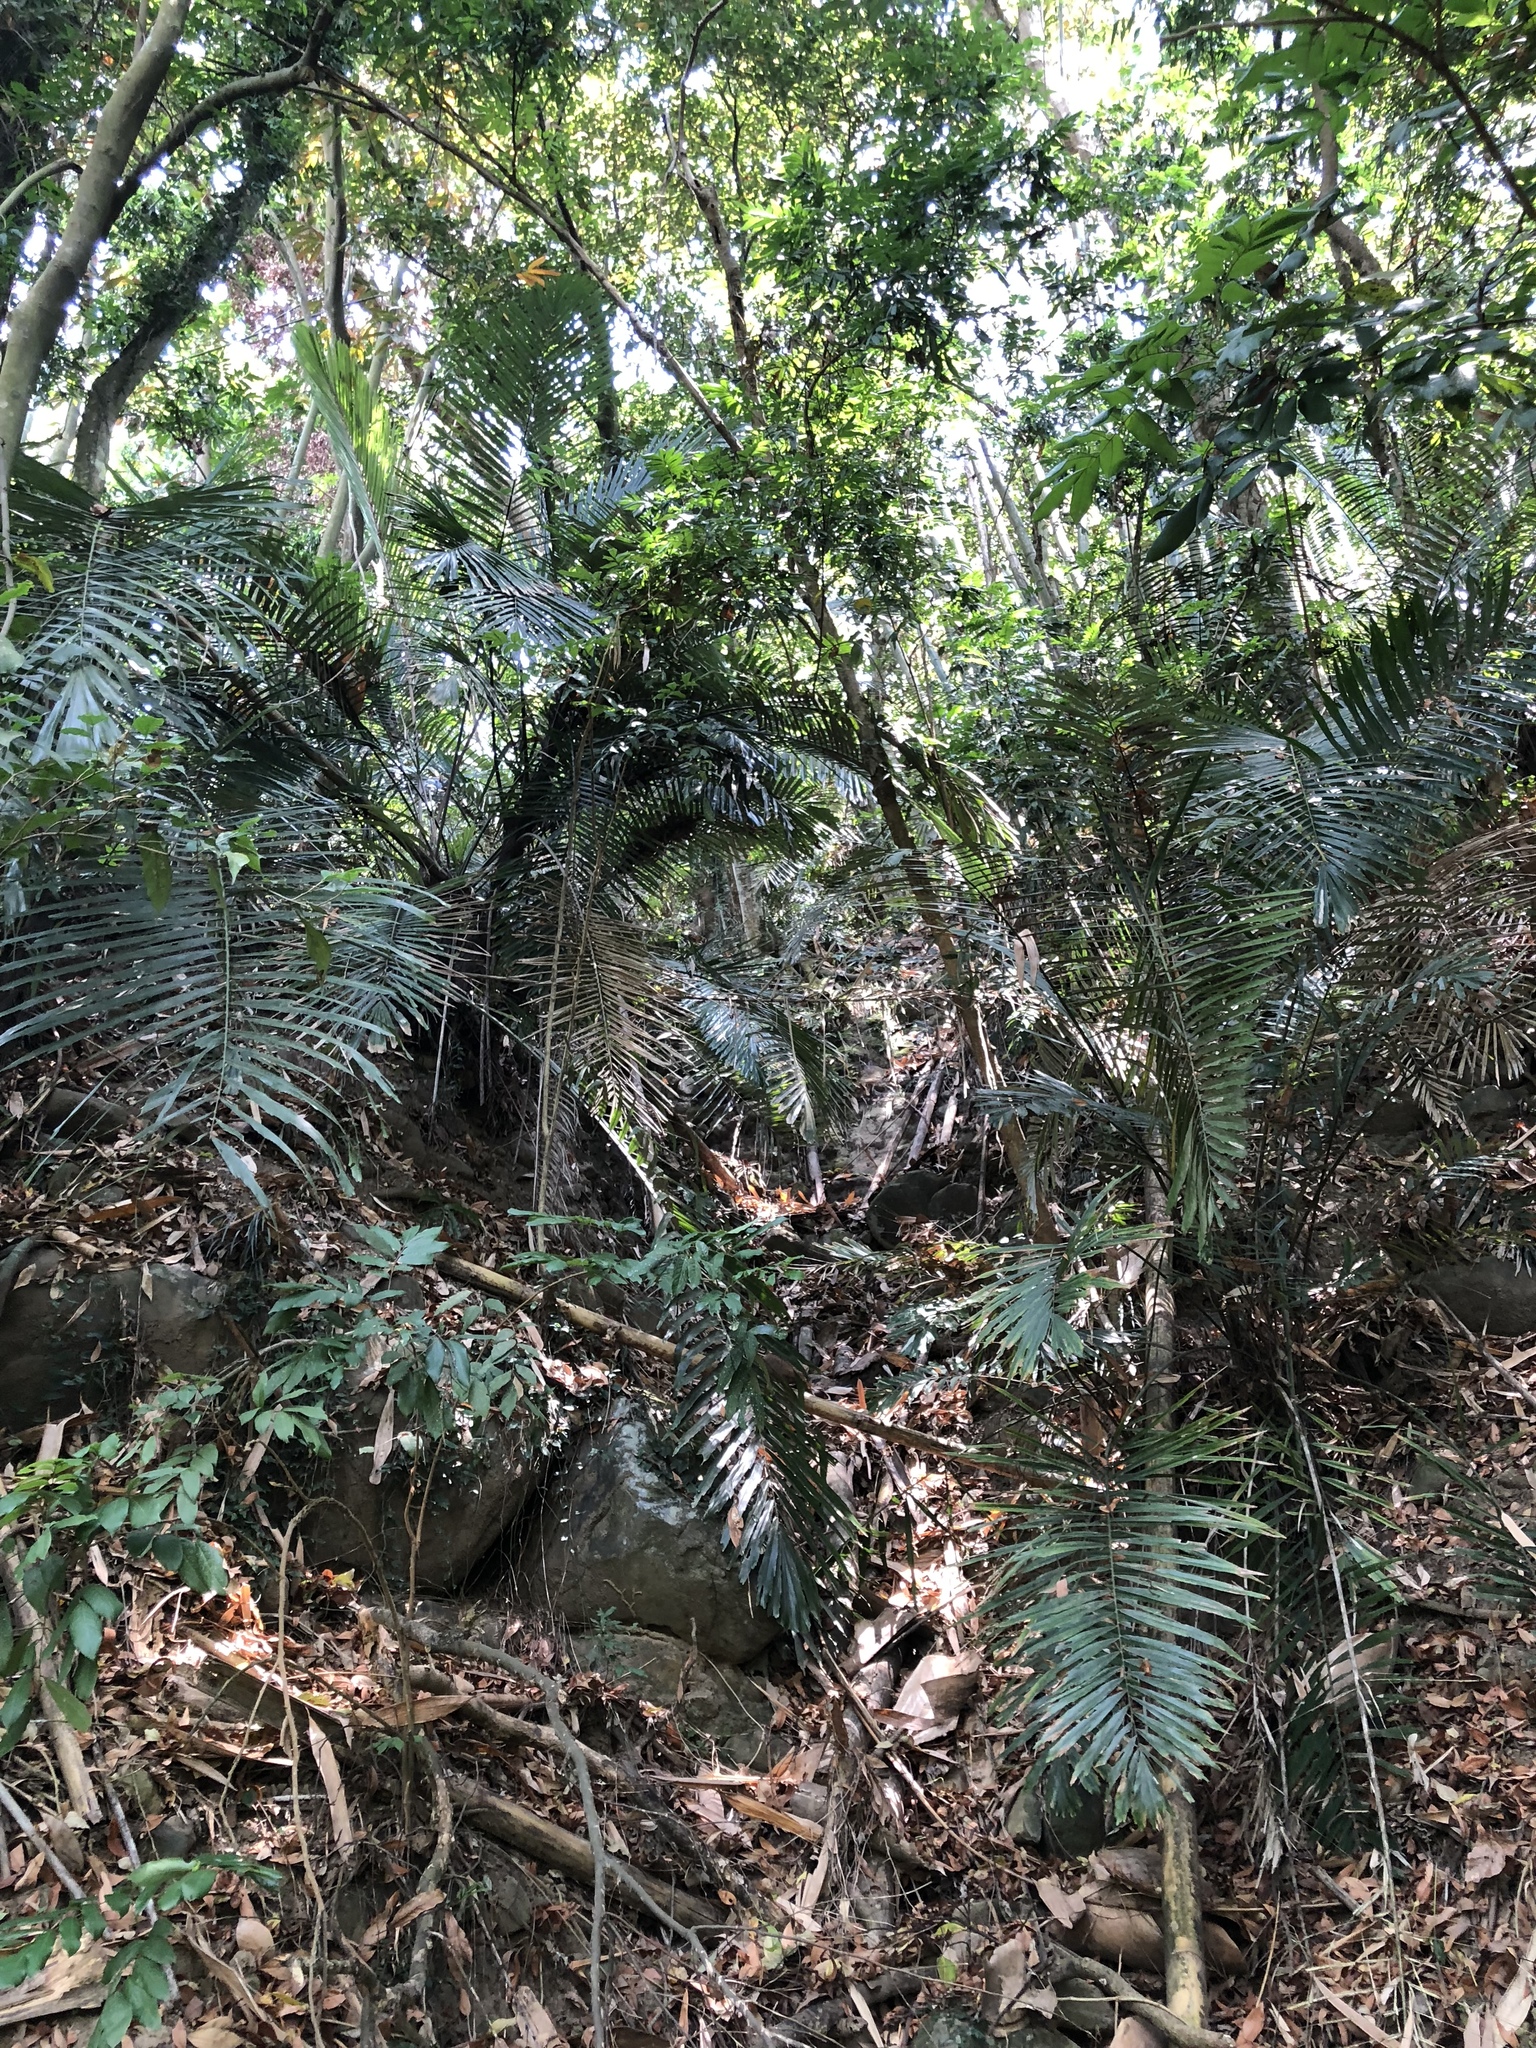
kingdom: Plantae
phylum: Tracheophyta
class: Liliopsida
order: Arecales
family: Arecaceae
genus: Arenga
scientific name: Arenga engleri
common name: Formosan sugar palm
